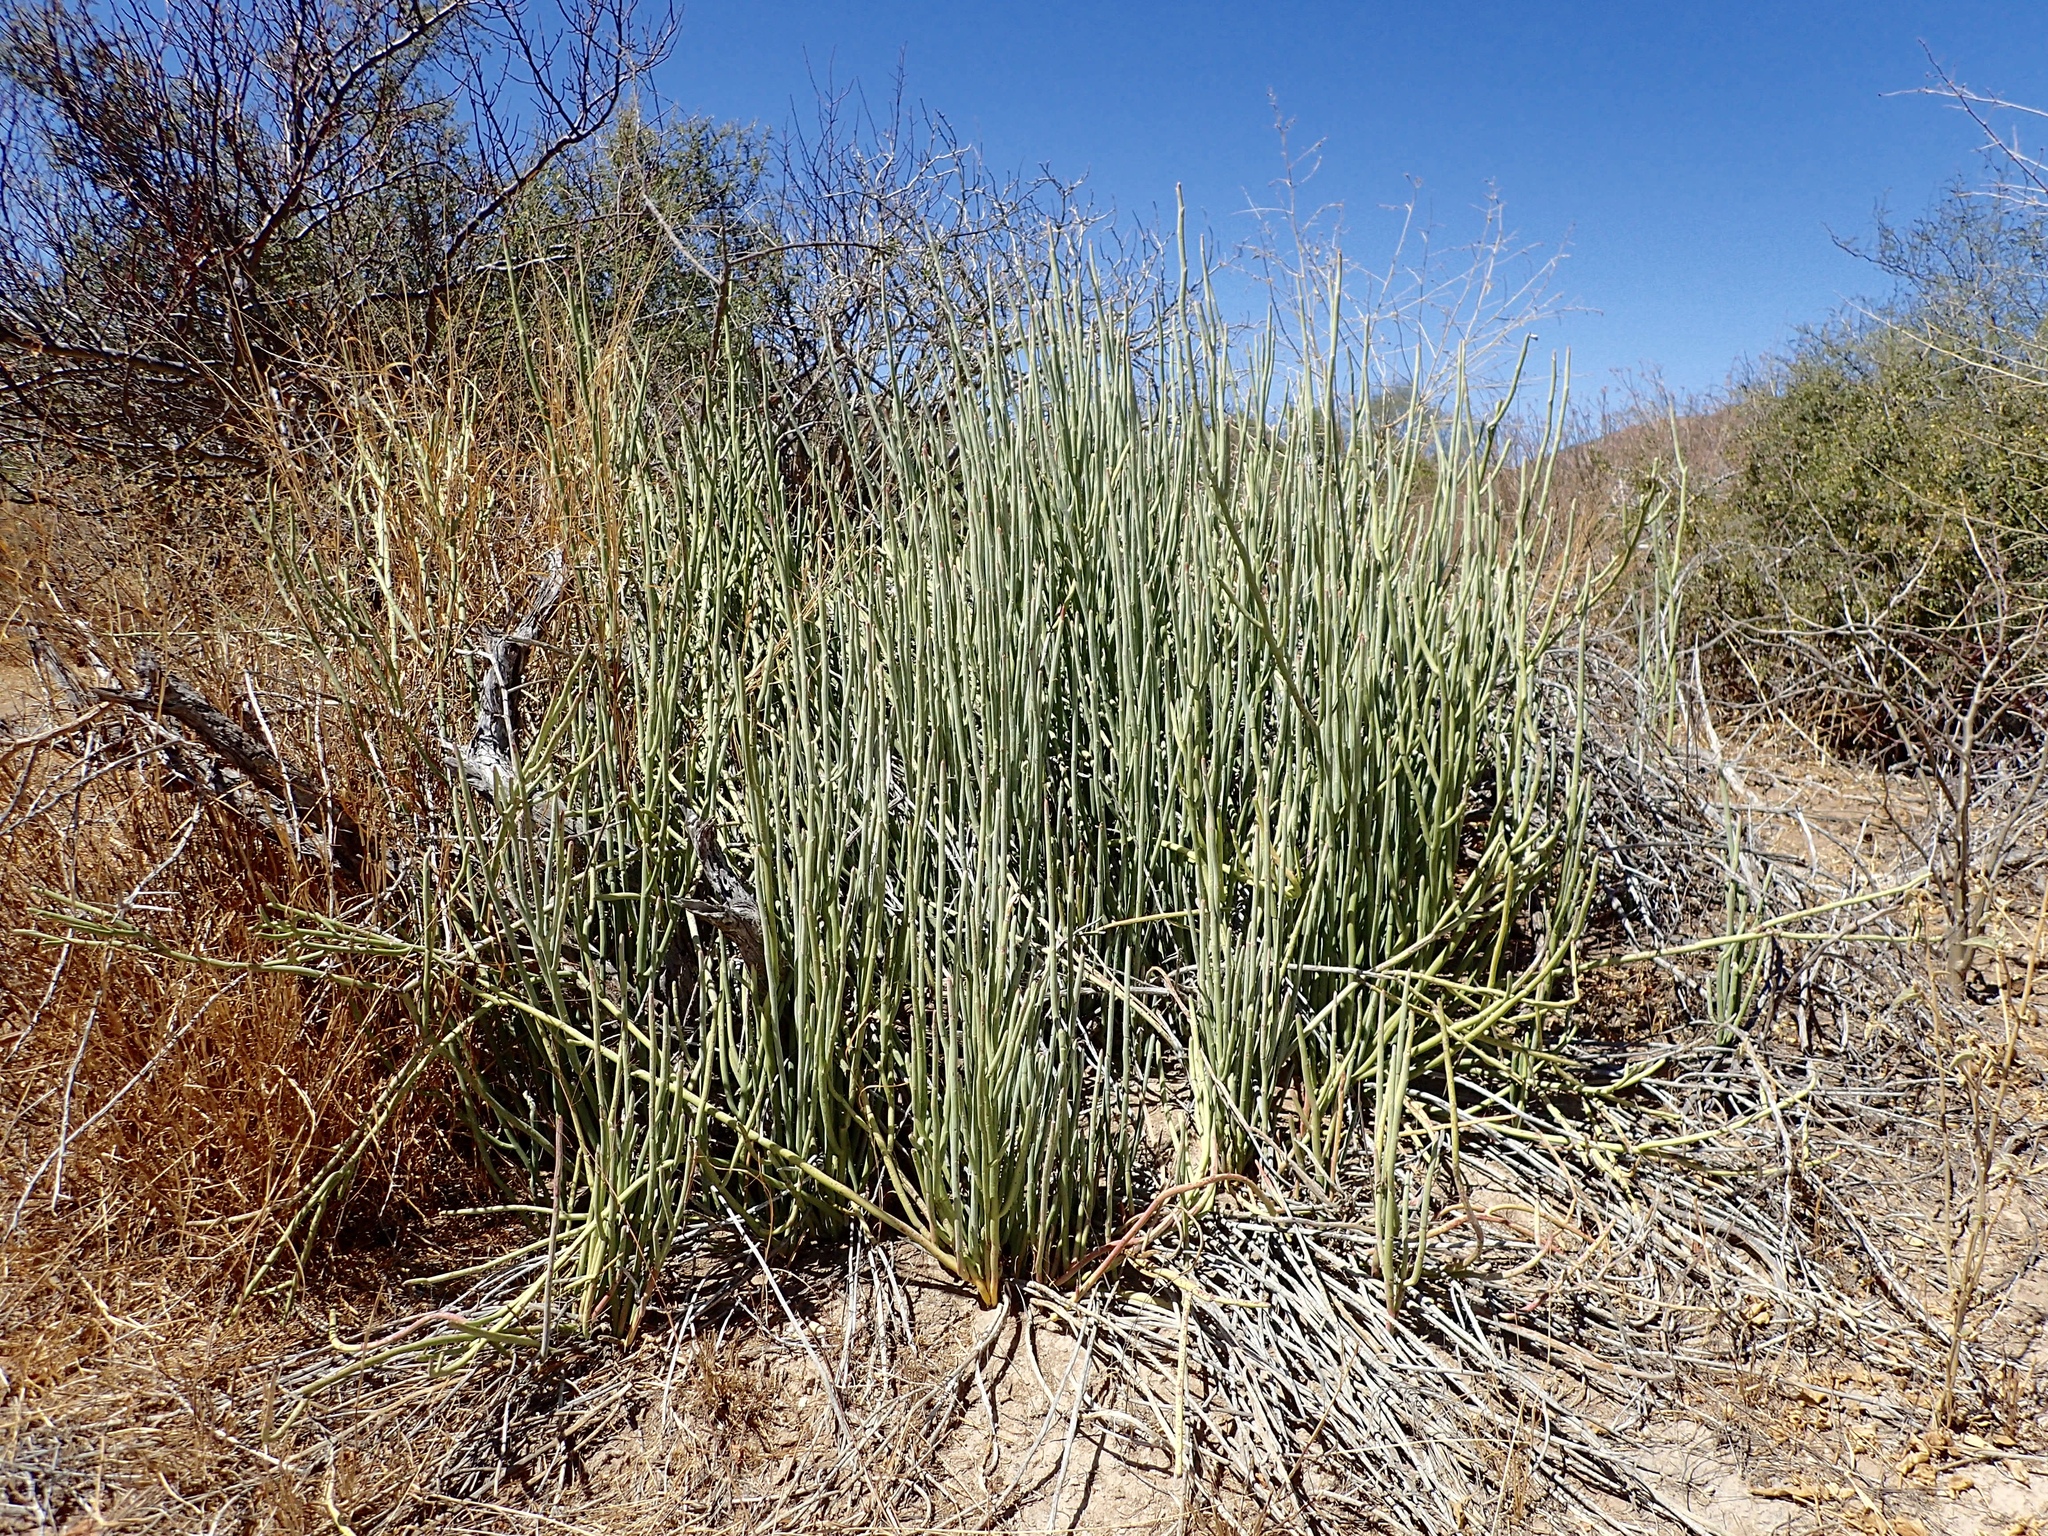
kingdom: Plantae
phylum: Tracheophyta
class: Magnoliopsida
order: Malpighiales
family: Euphorbiaceae
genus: Euphorbia
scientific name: Euphorbia lomelii
